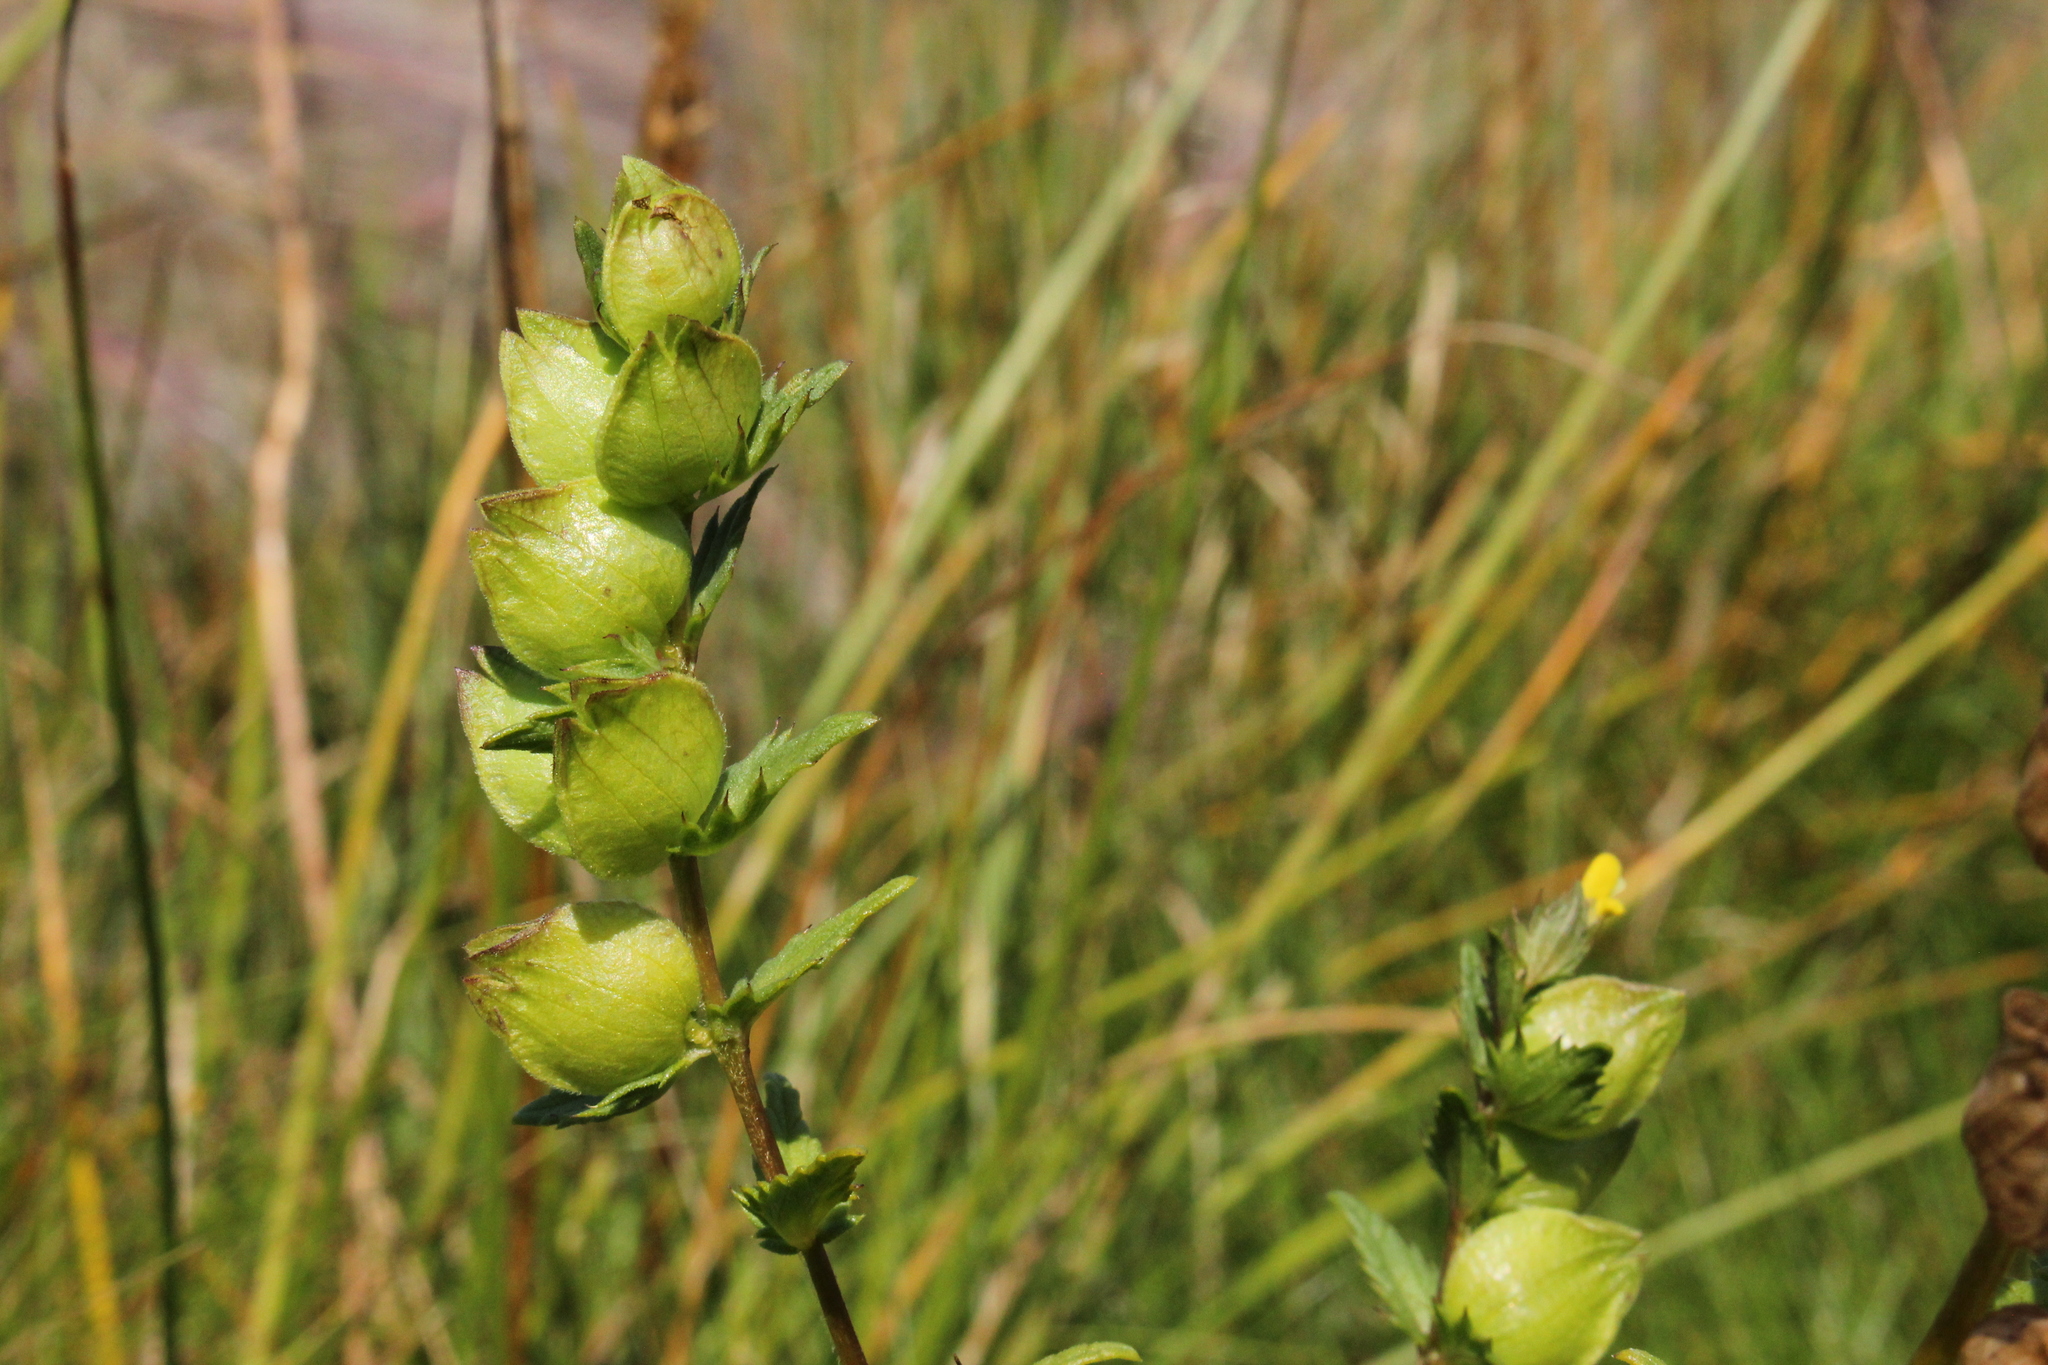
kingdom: Plantae
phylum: Tracheophyta
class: Magnoliopsida
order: Lamiales
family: Orobanchaceae
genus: Rhinanthus
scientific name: Rhinanthus minor
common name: Yellow-rattle
